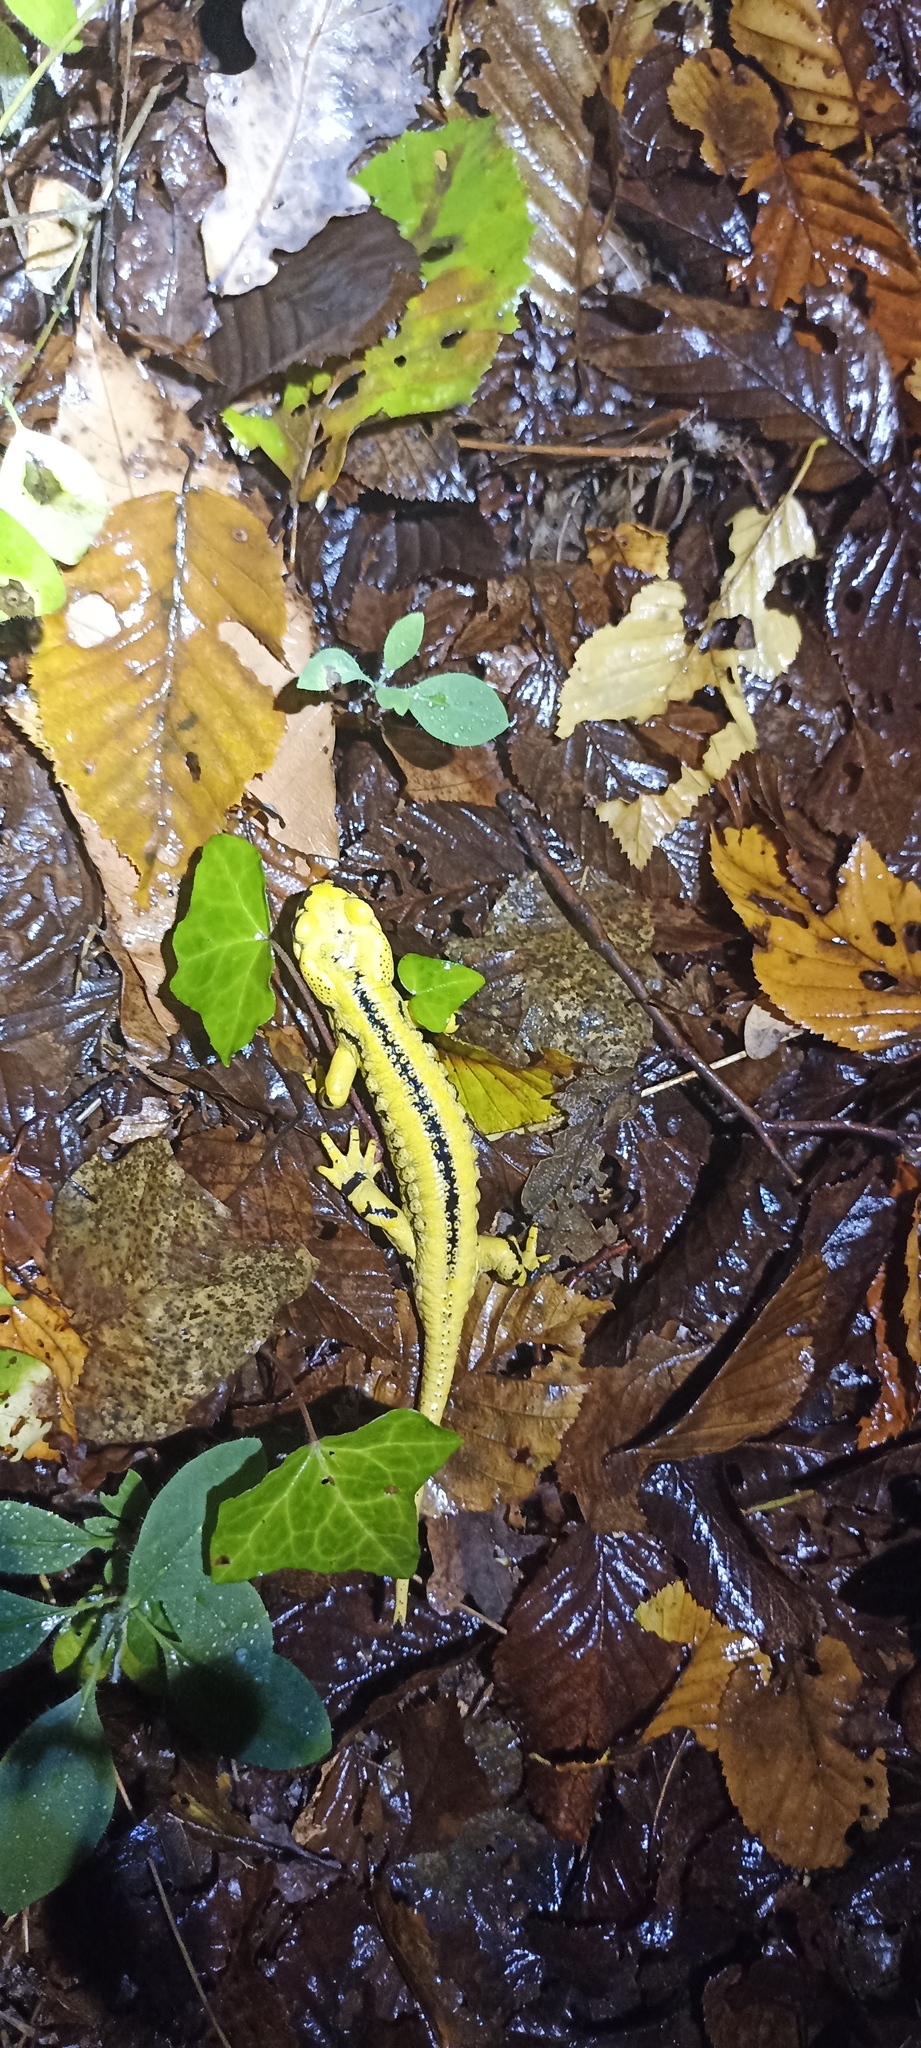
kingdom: Animalia
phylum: Chordata
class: Amphibia
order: Caudata
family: Salamandridae
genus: Salamandra
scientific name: Salamandra salamandra
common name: Fire salamander
